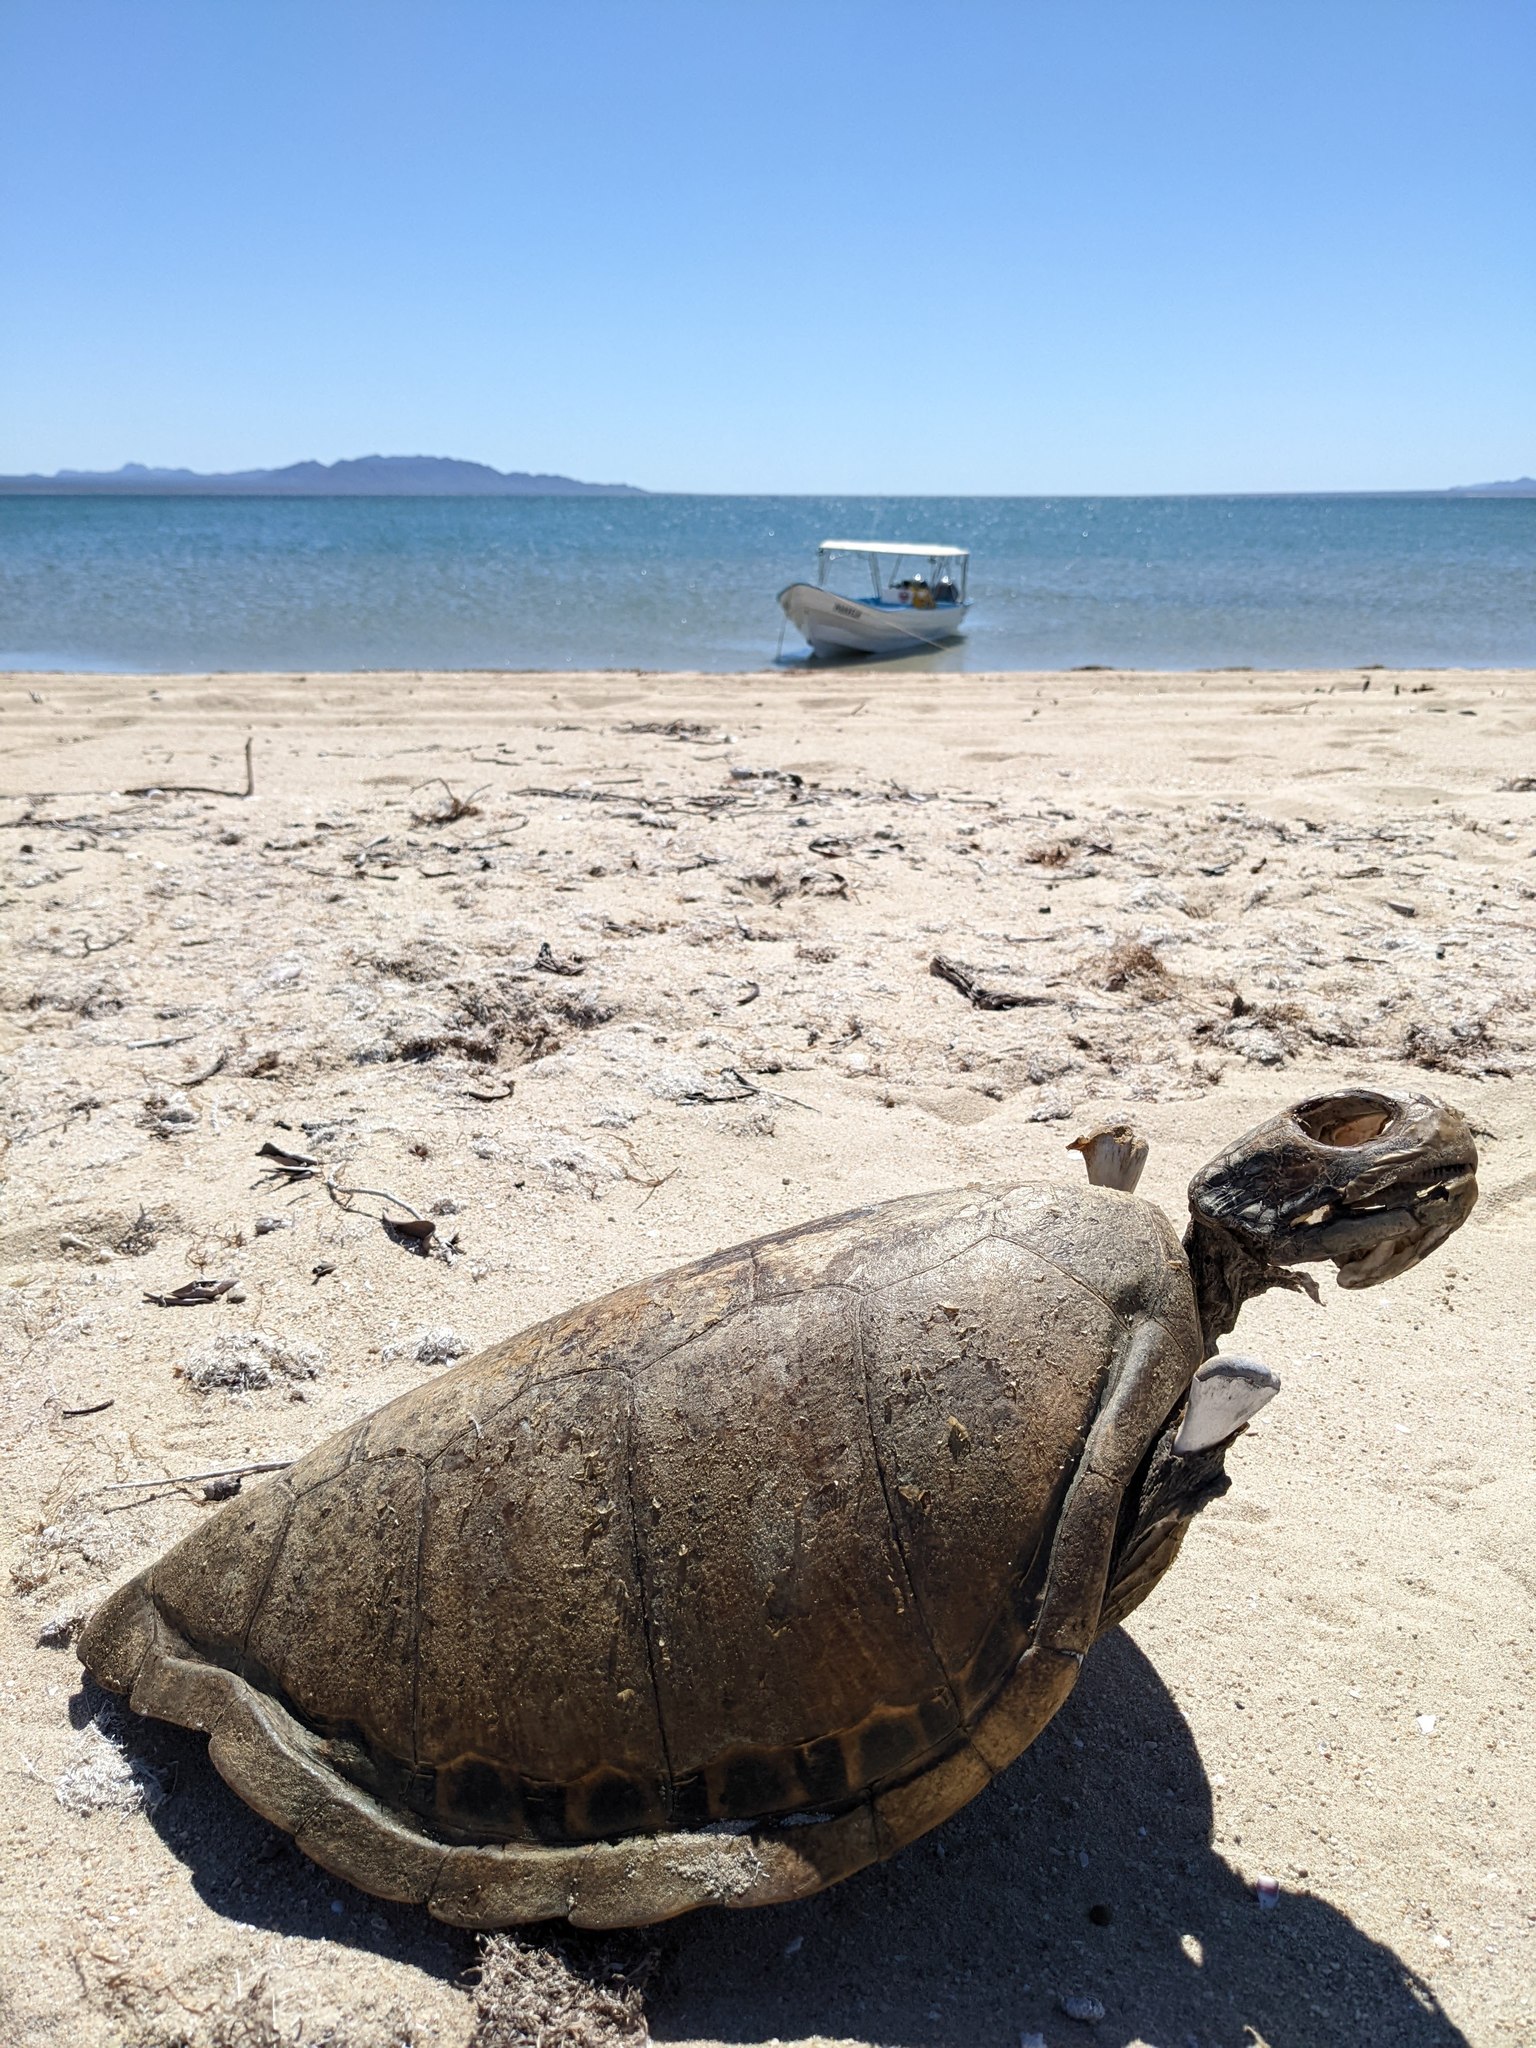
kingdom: Animalia
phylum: Chordata
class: Testudines
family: Cheloniidae
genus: Chelonia
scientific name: Chelonia mydas
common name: Green turtle
